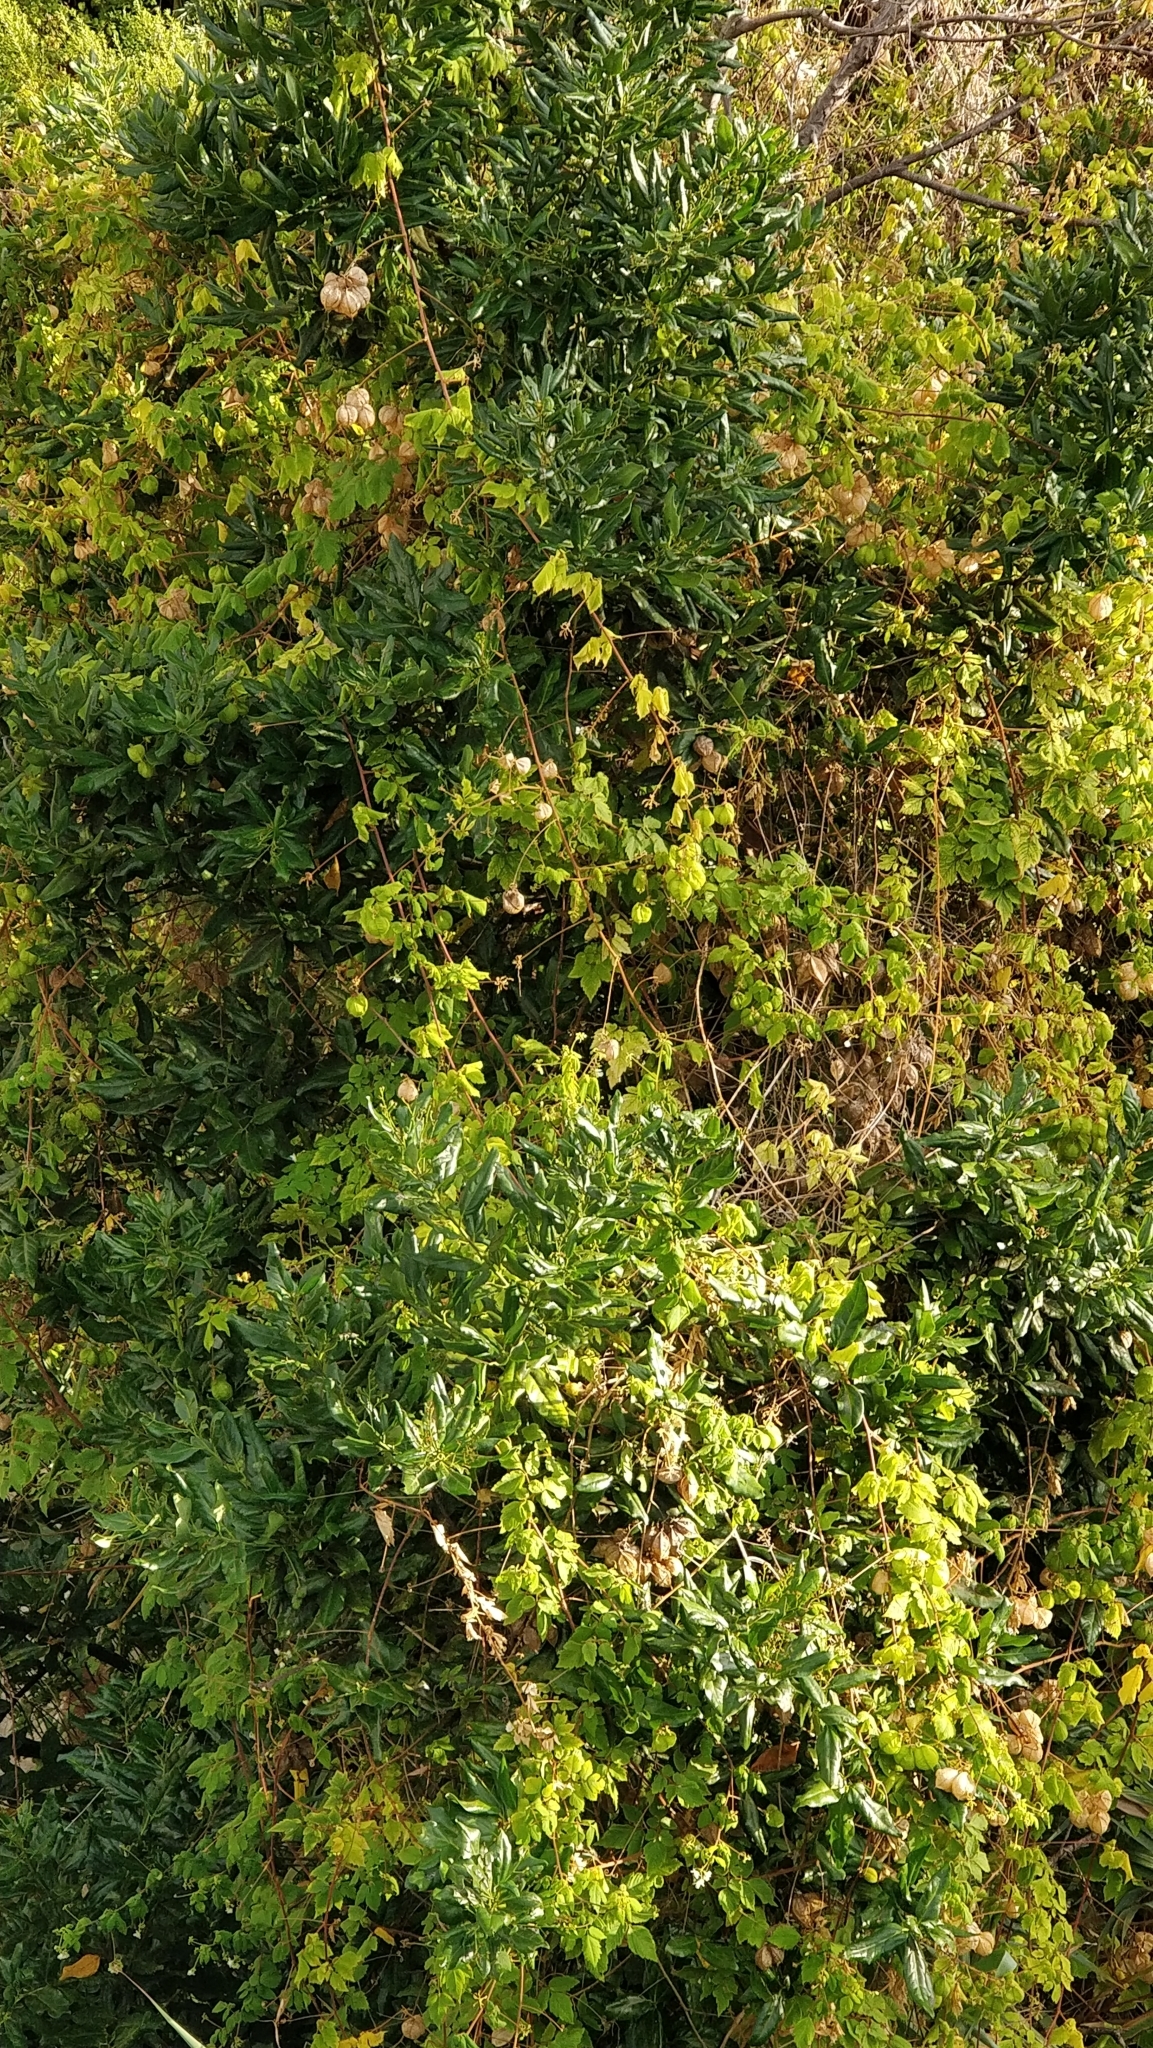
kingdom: Plantae
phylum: Tracheophyta
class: Magnoliopsida
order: Laurales
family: Lauraceae
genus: Apollonias
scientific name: Apollonias barbujana
